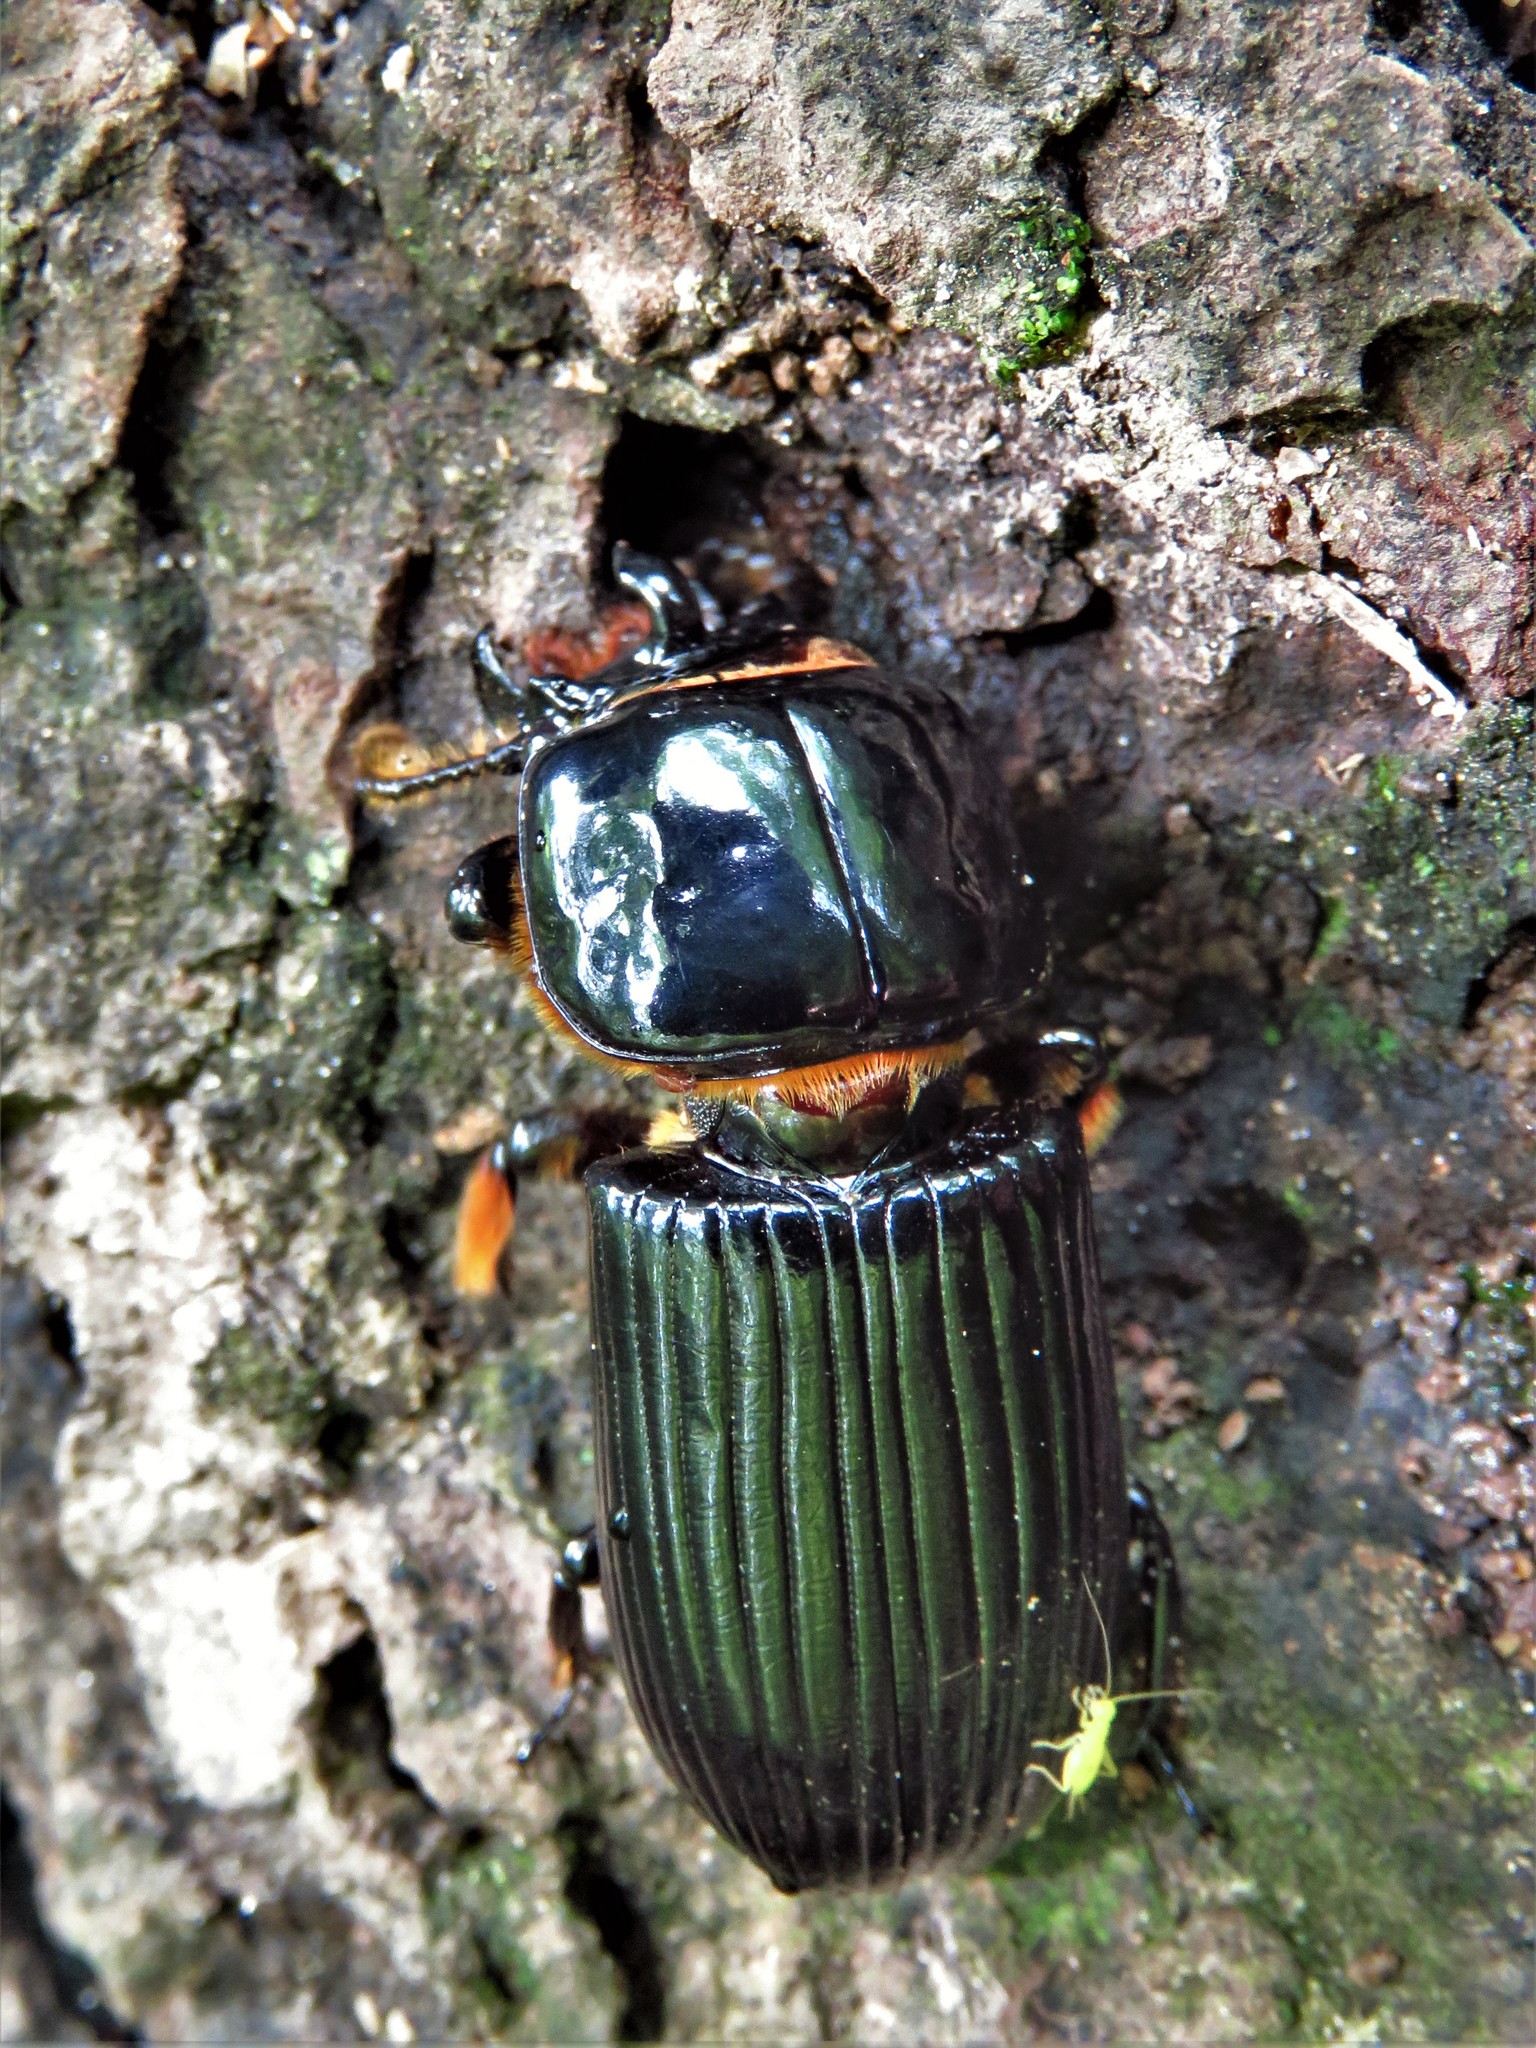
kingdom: Animalia
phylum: Arthropoda
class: Insecta
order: Coleoptera
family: Passalidae
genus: Odontotaenius
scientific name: Odontotaenius disjunctus
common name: Patent leather beetle
